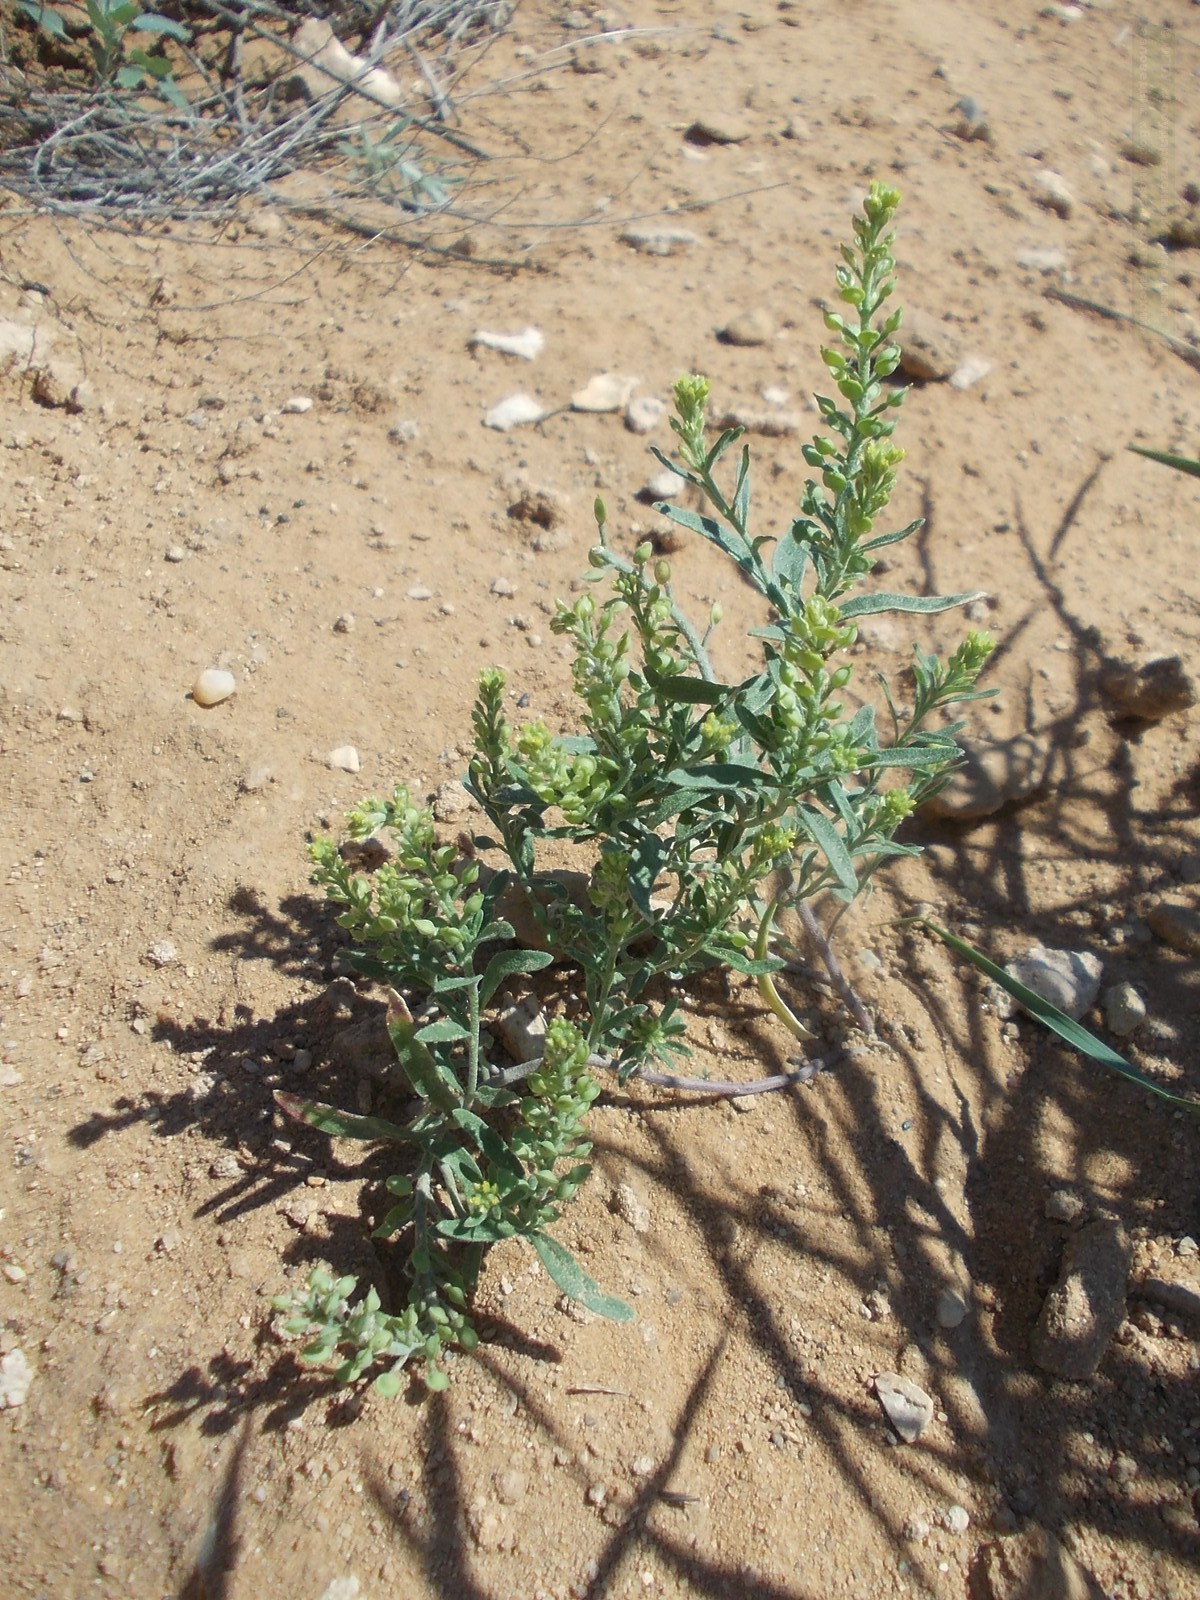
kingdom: Plantae
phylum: Tracheophyta
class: Magnoliopsida
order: Brassicales
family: Brassicaceae
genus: Alyssum
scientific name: Alyssum turkestanicum
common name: Desert alyssum
